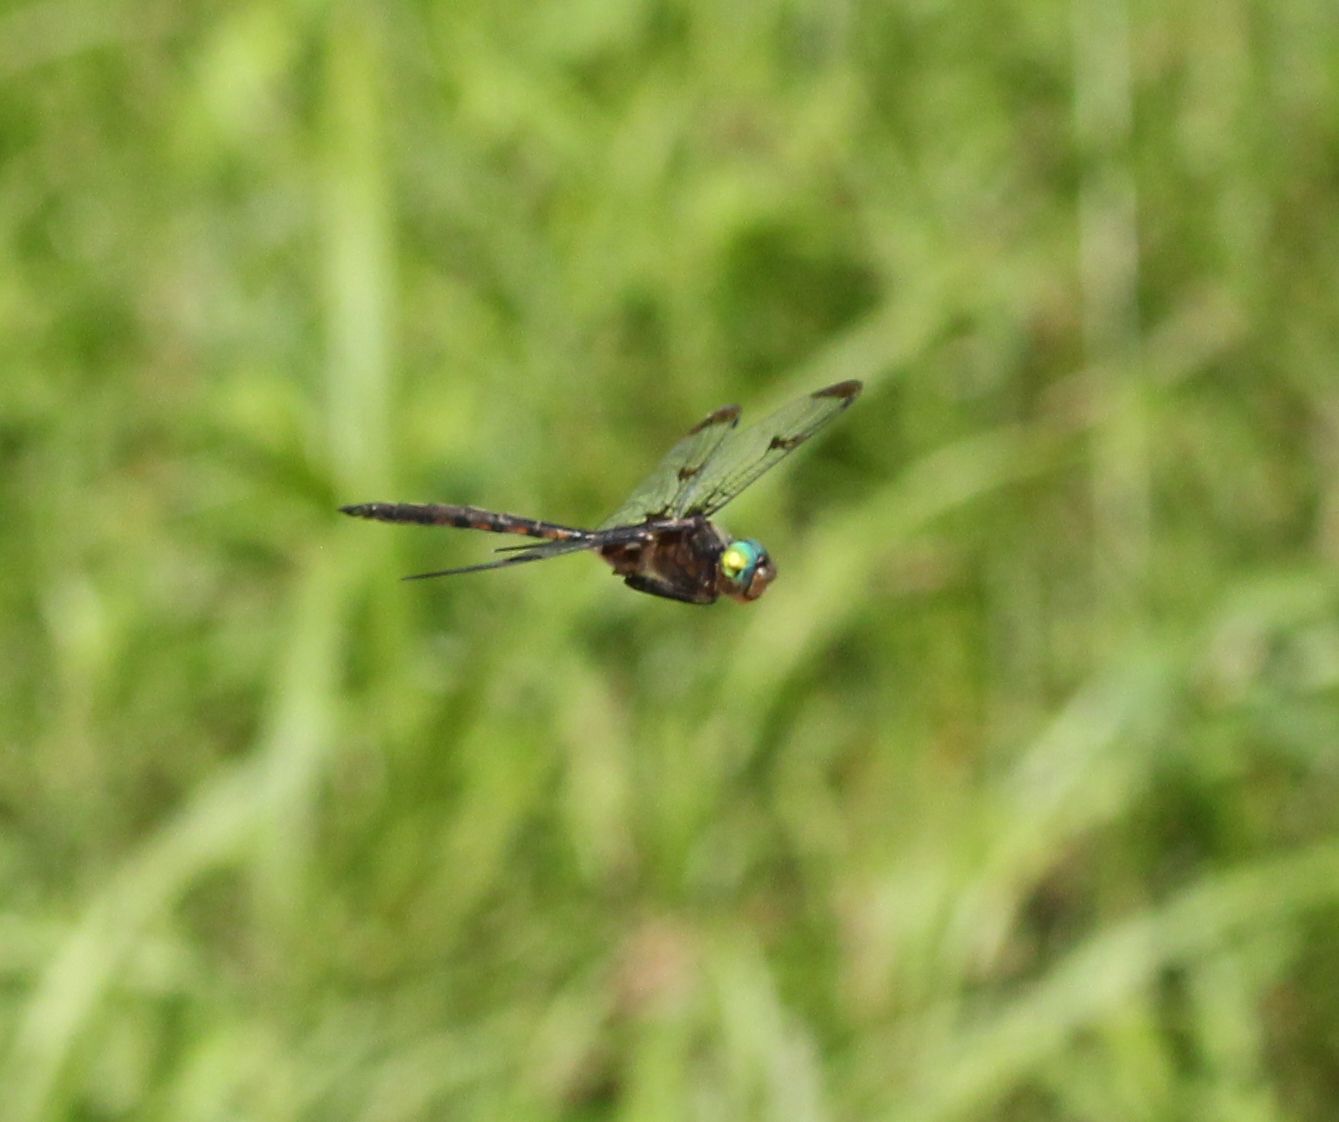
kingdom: Animalia
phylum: Arthropoda
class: Insecta
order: Odonata
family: Corduliidae
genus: Epitheca
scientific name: Epitheca princeps
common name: Prince baskettail
